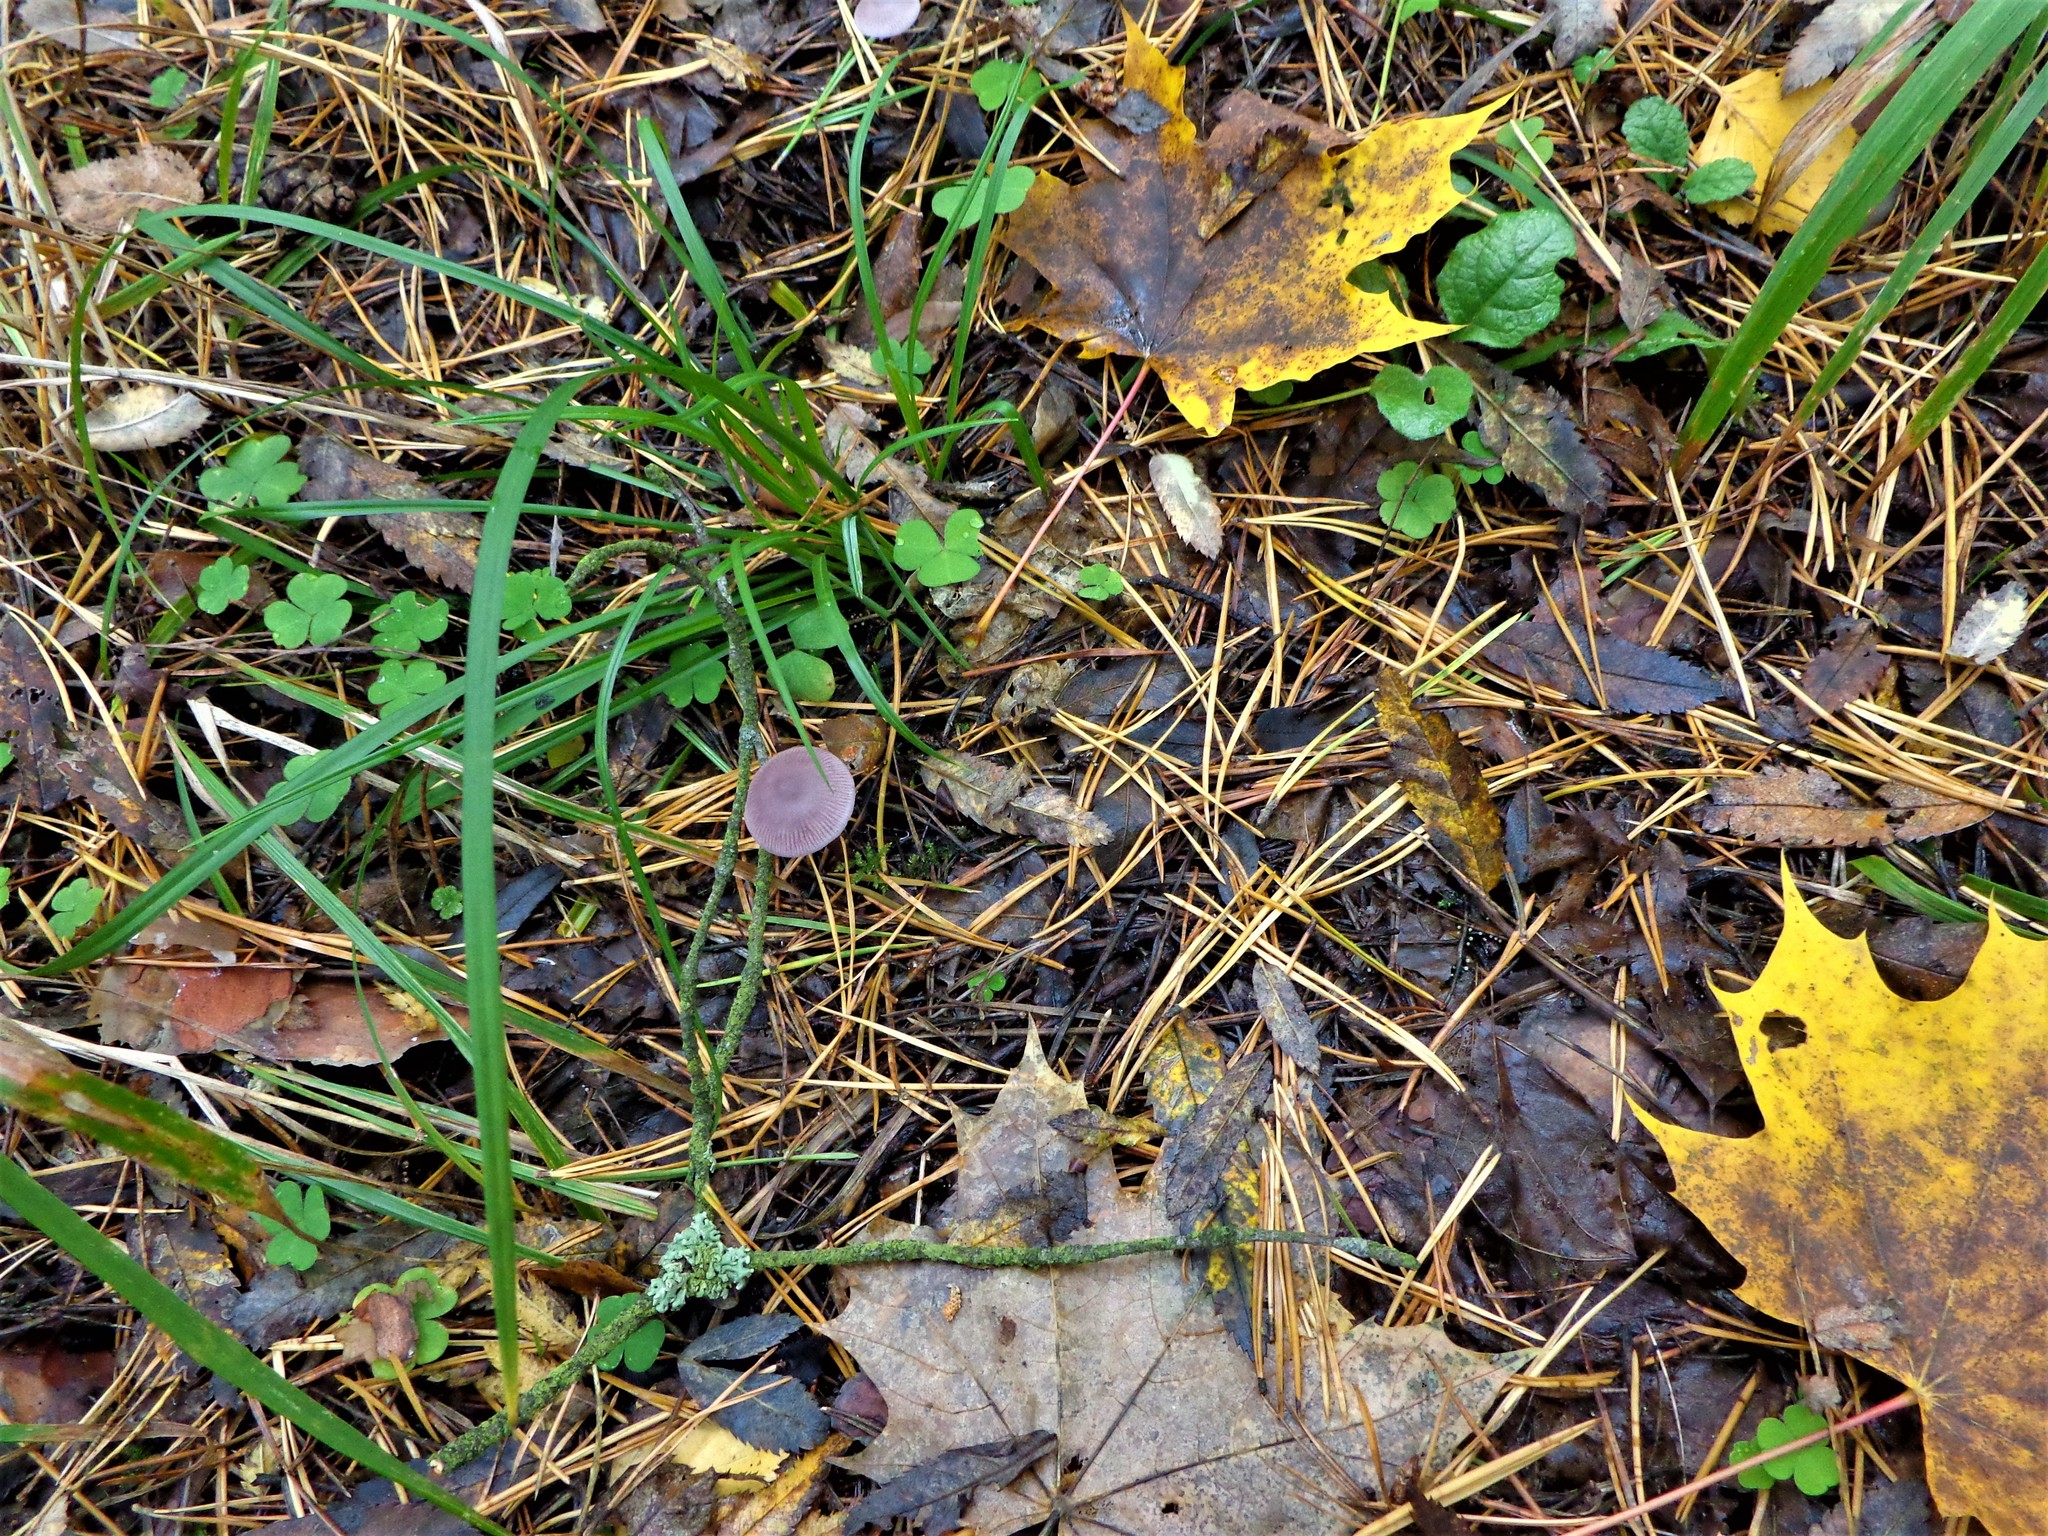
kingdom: Fungi
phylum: Basidiomycota
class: Agaricomycetes
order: Agaricales
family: Mycenaceae
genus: Mycena
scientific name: Mycena pura
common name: Lilac bonnet
